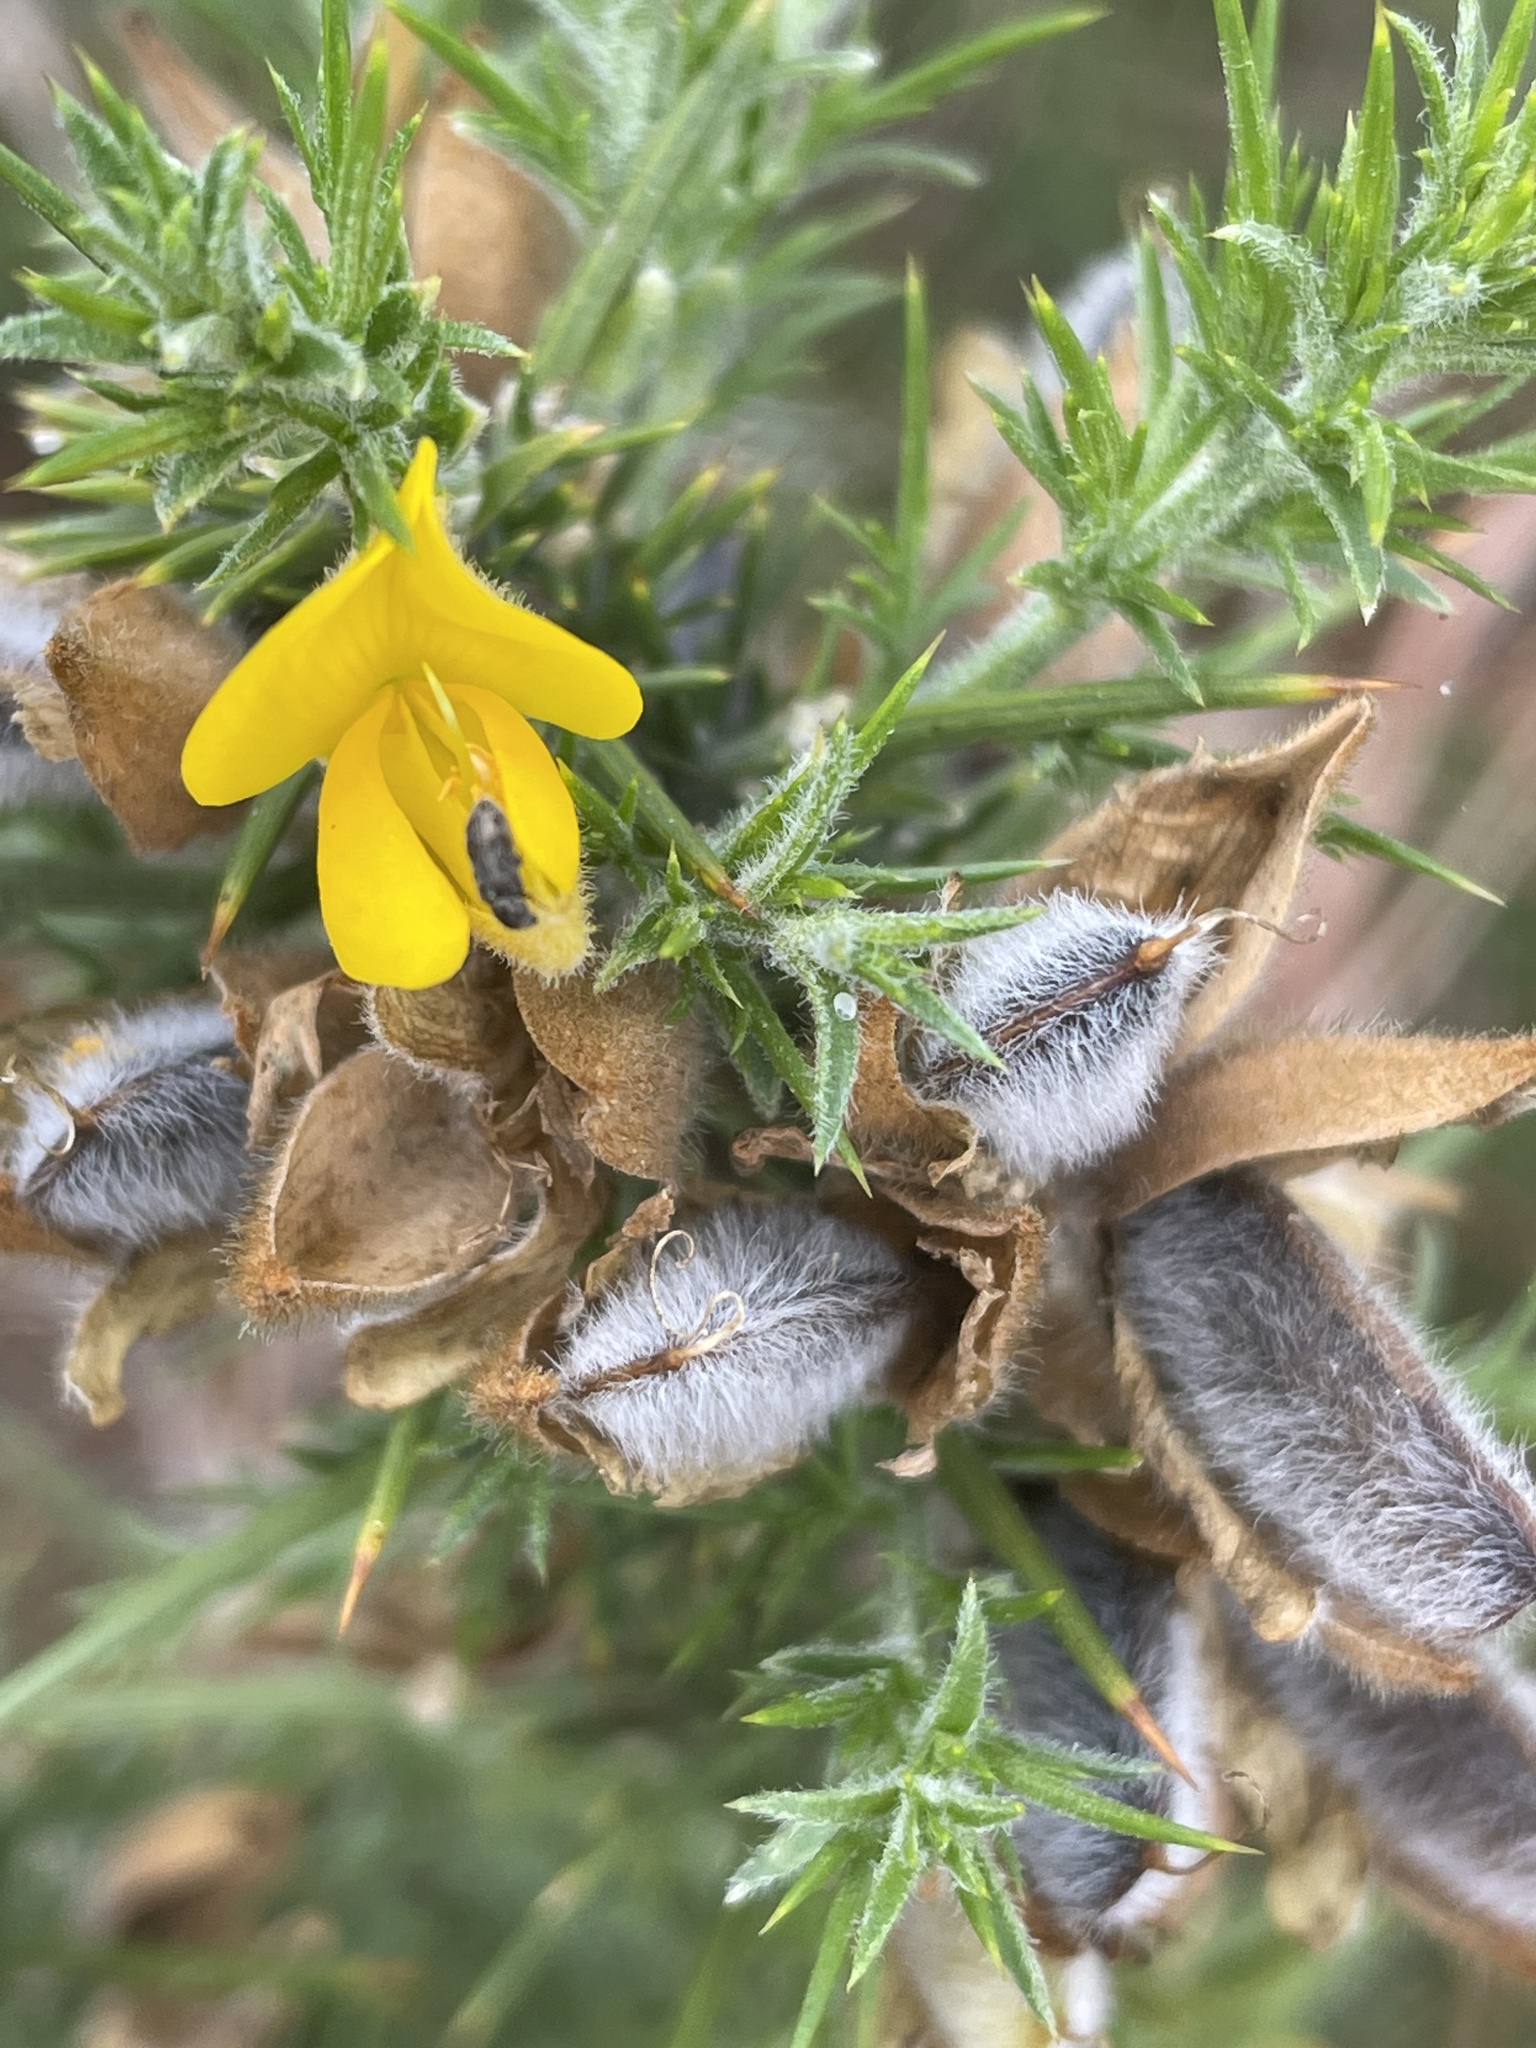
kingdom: Plantae
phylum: Tracheophyta
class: Magnoliopsida
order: Fabales
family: Fabaceae
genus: Ulex
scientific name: Ulex europaeus
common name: Common gorse
